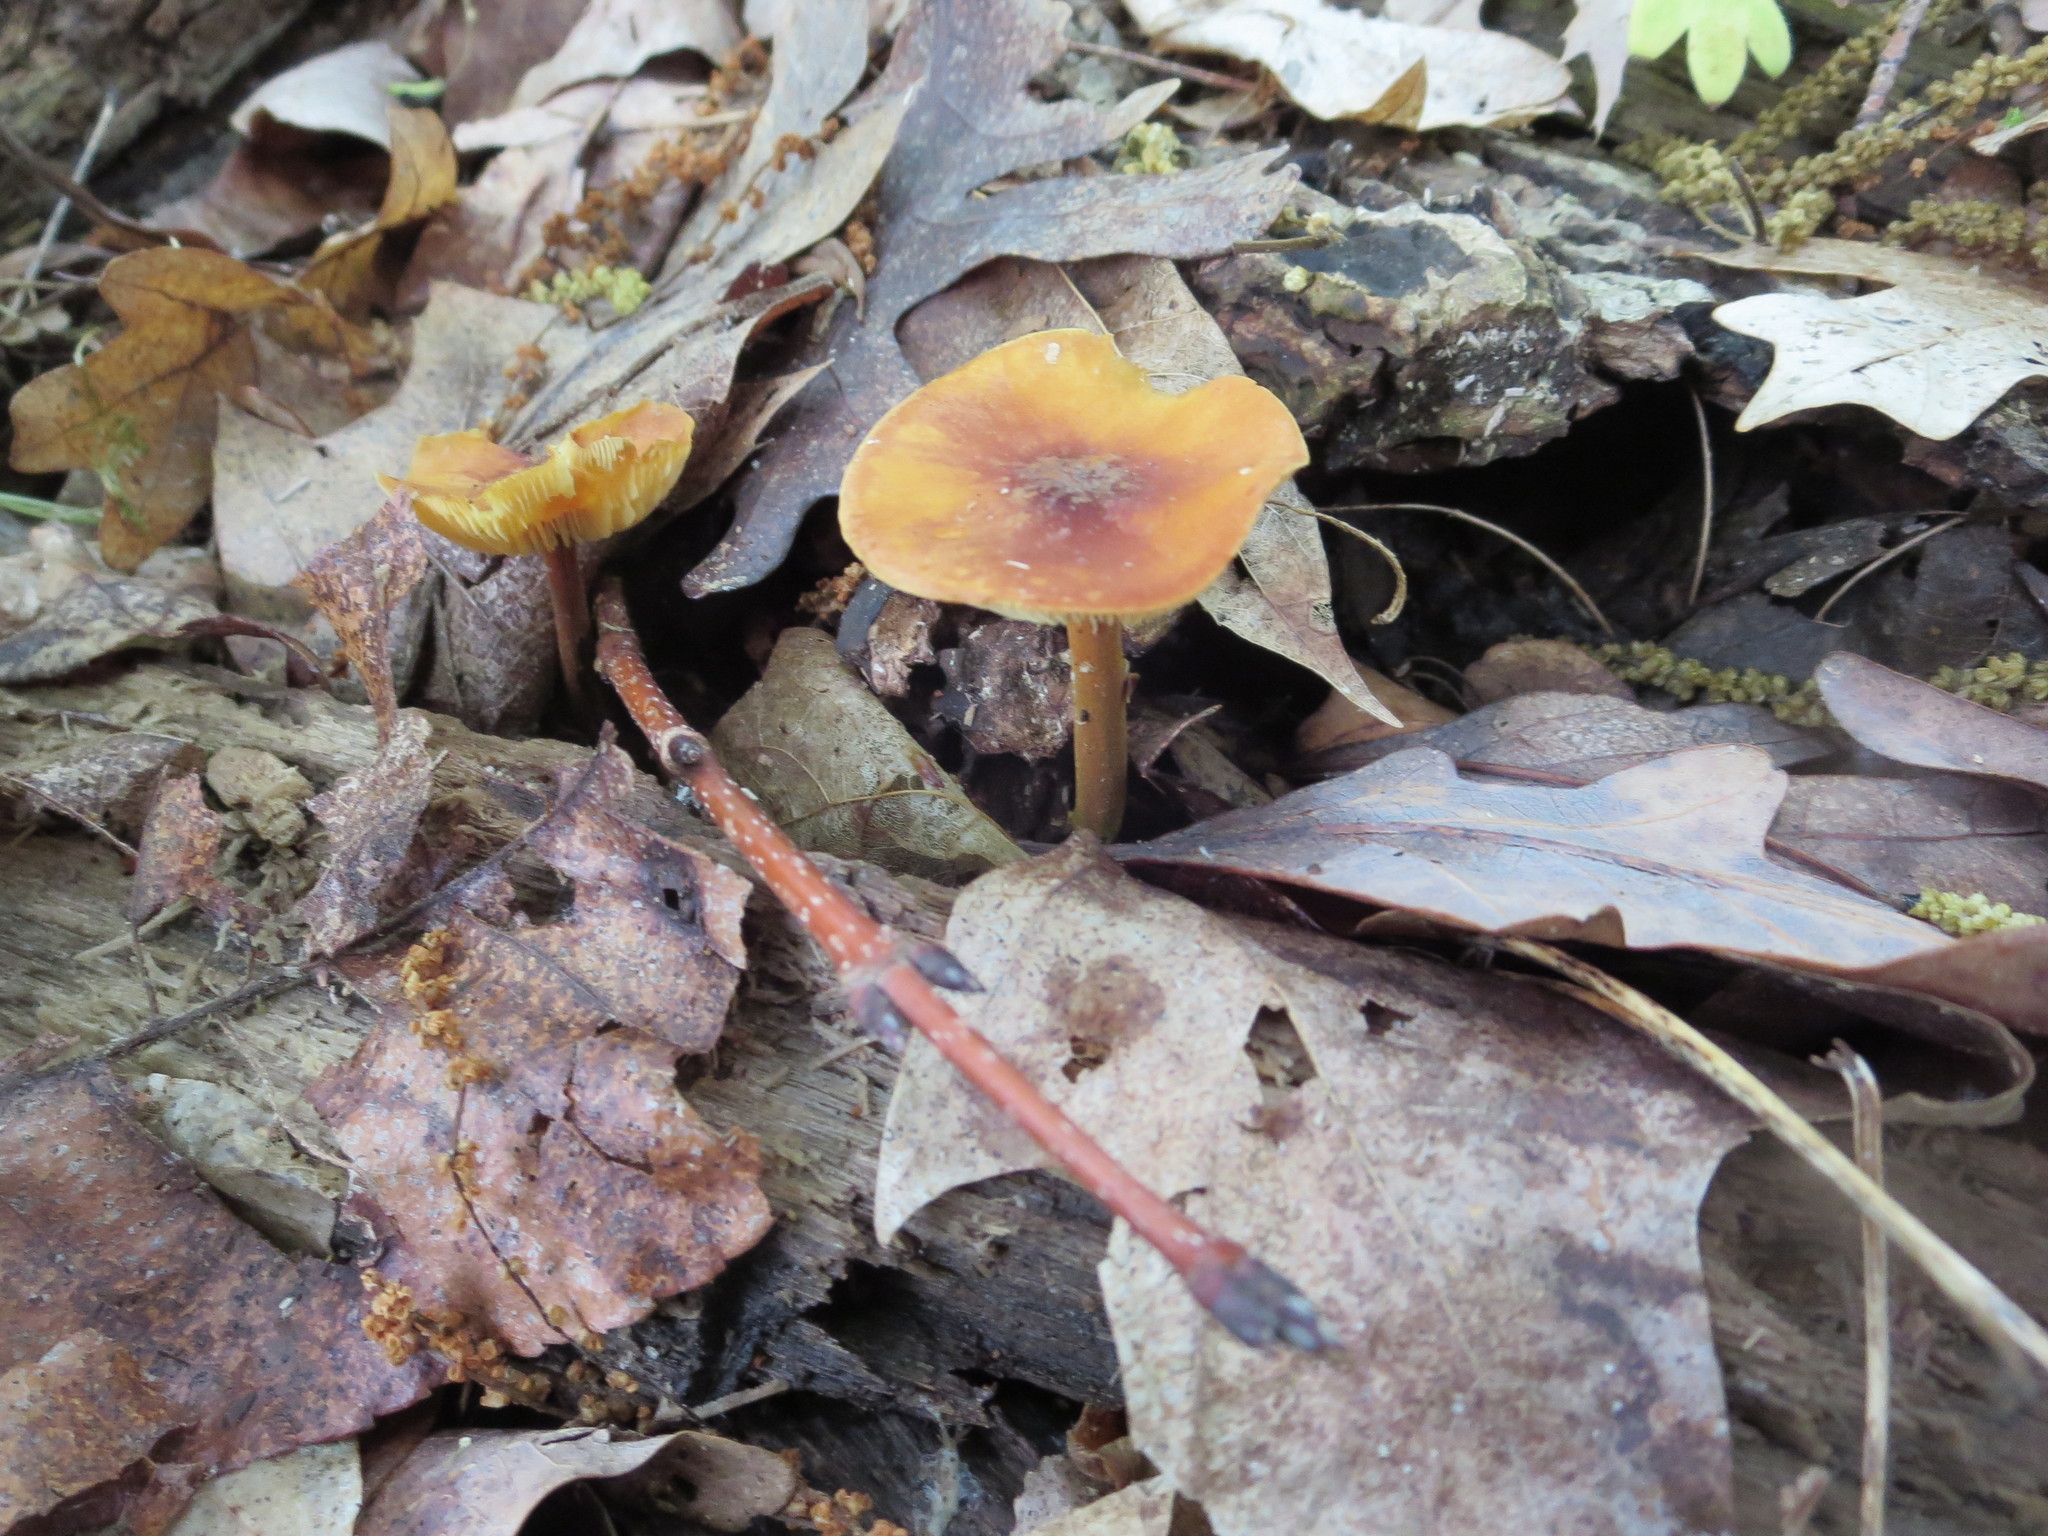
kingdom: Fungi
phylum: Basidiomycota
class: Agaricomycetes
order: Agaricales
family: Mycenaceae
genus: Xeromphalina
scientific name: Xeromphalina tenuipes
